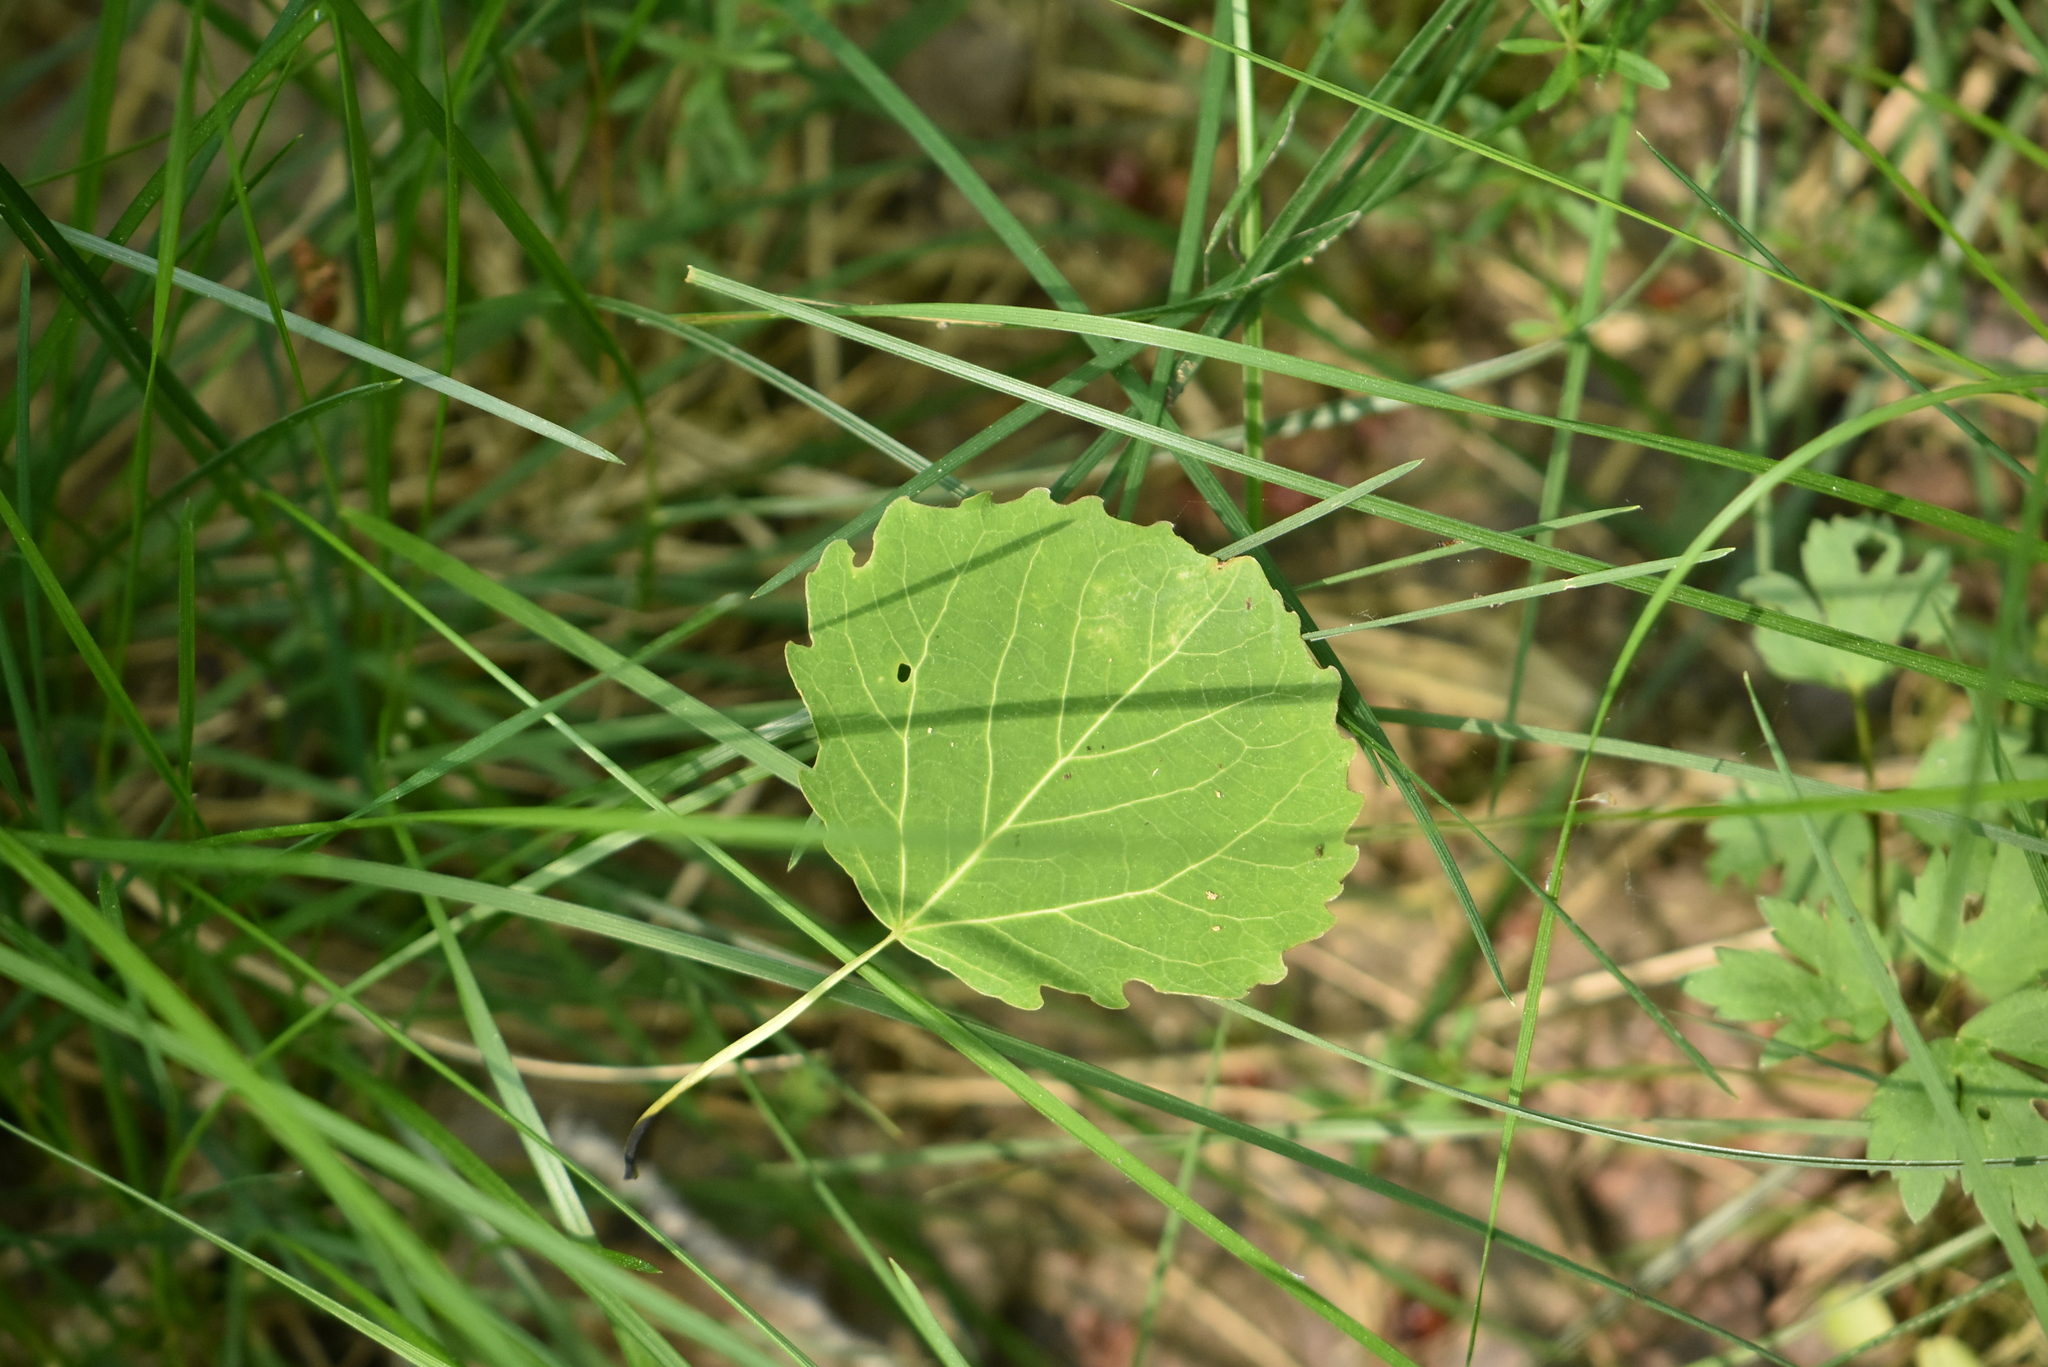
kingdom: Plantae
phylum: Tracheophyta
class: Magnoliopsida
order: Malpighiales
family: Salicaceae
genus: Populus
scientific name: Populus tremula
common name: European aspen
